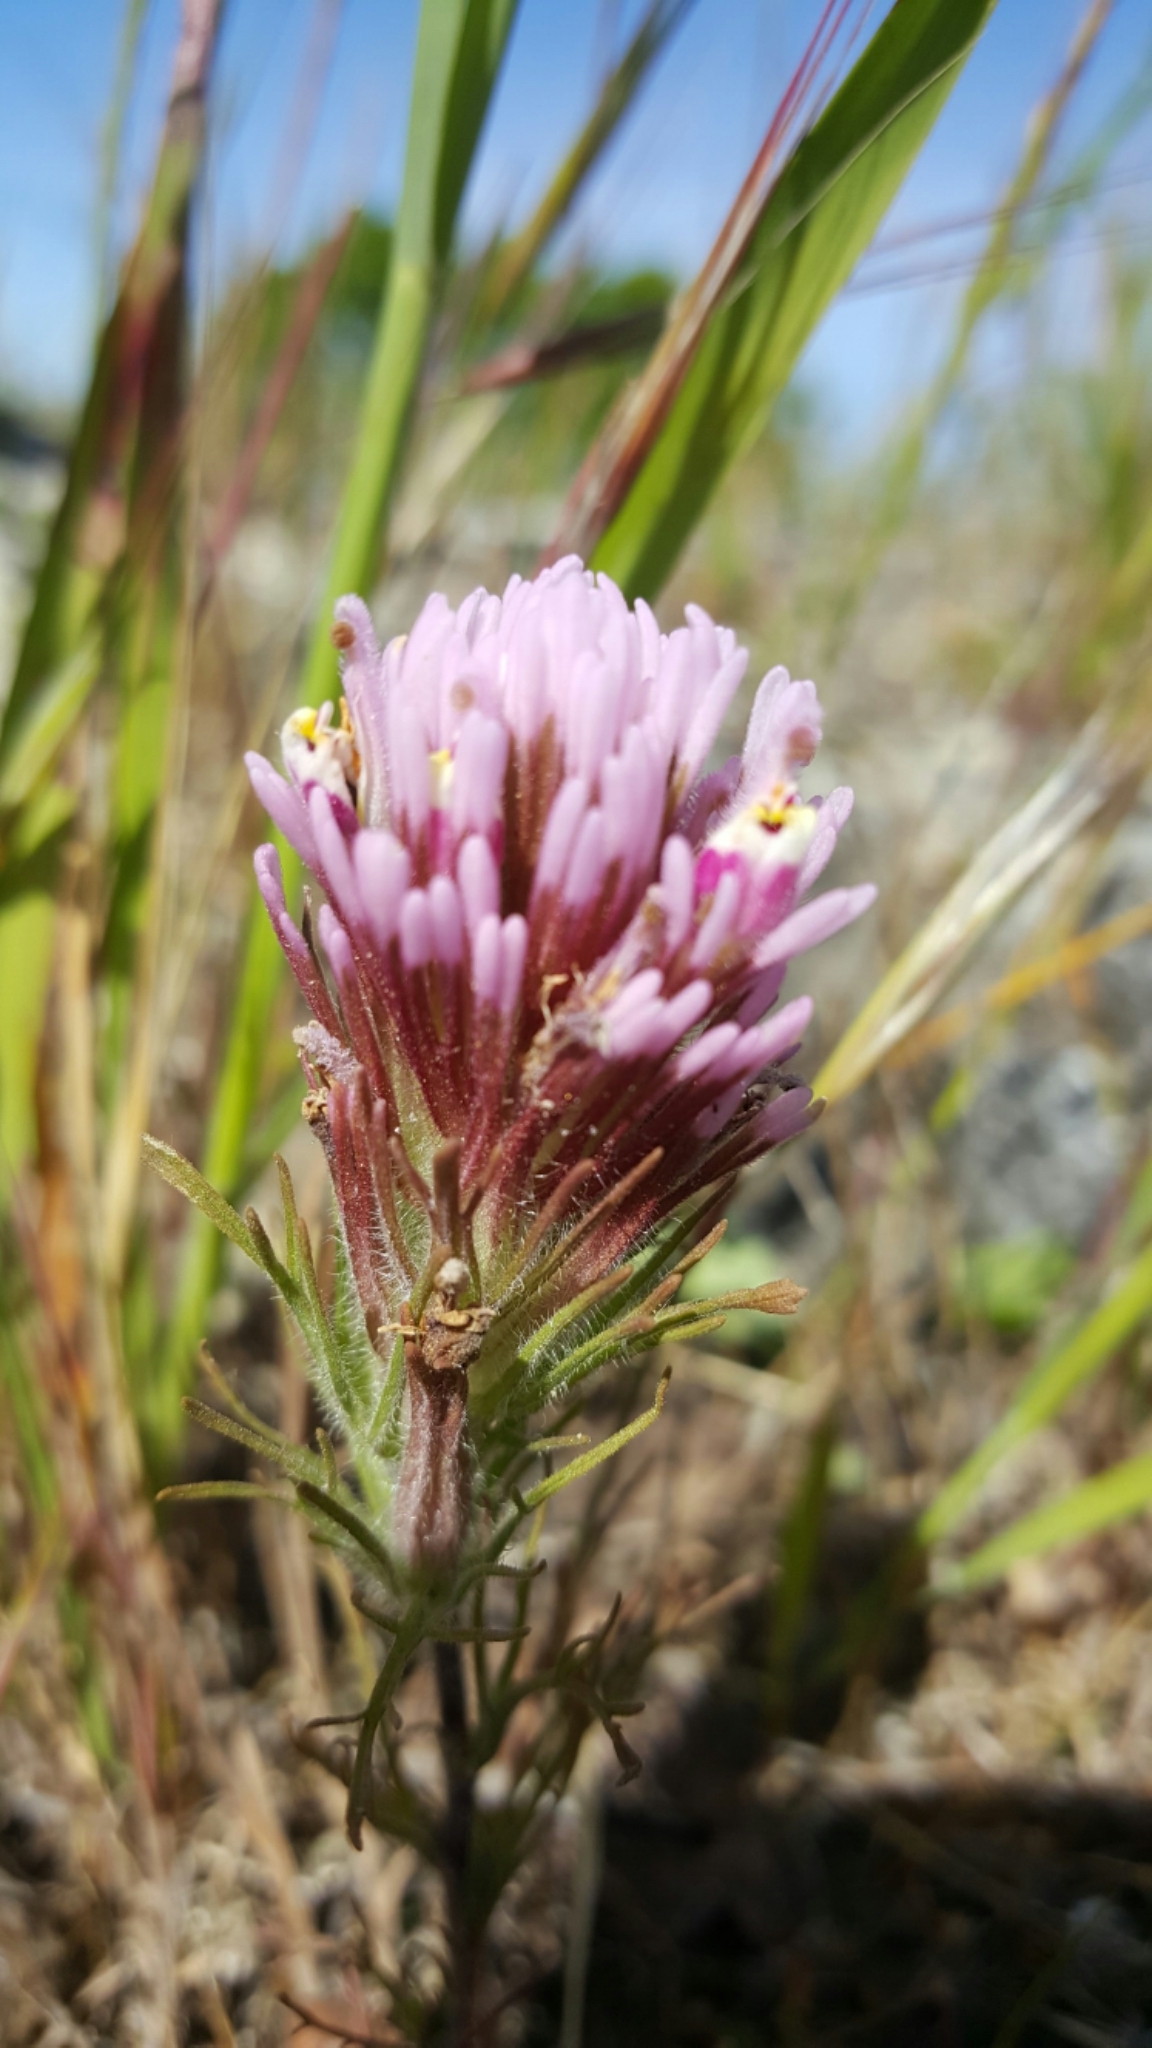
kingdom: Plantae
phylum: Tracheophyta
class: Magnoliopsida
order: Lamiales
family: Orobanchaceae
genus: Castilleja
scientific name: Castilleja exserta
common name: Purple owl-clover
